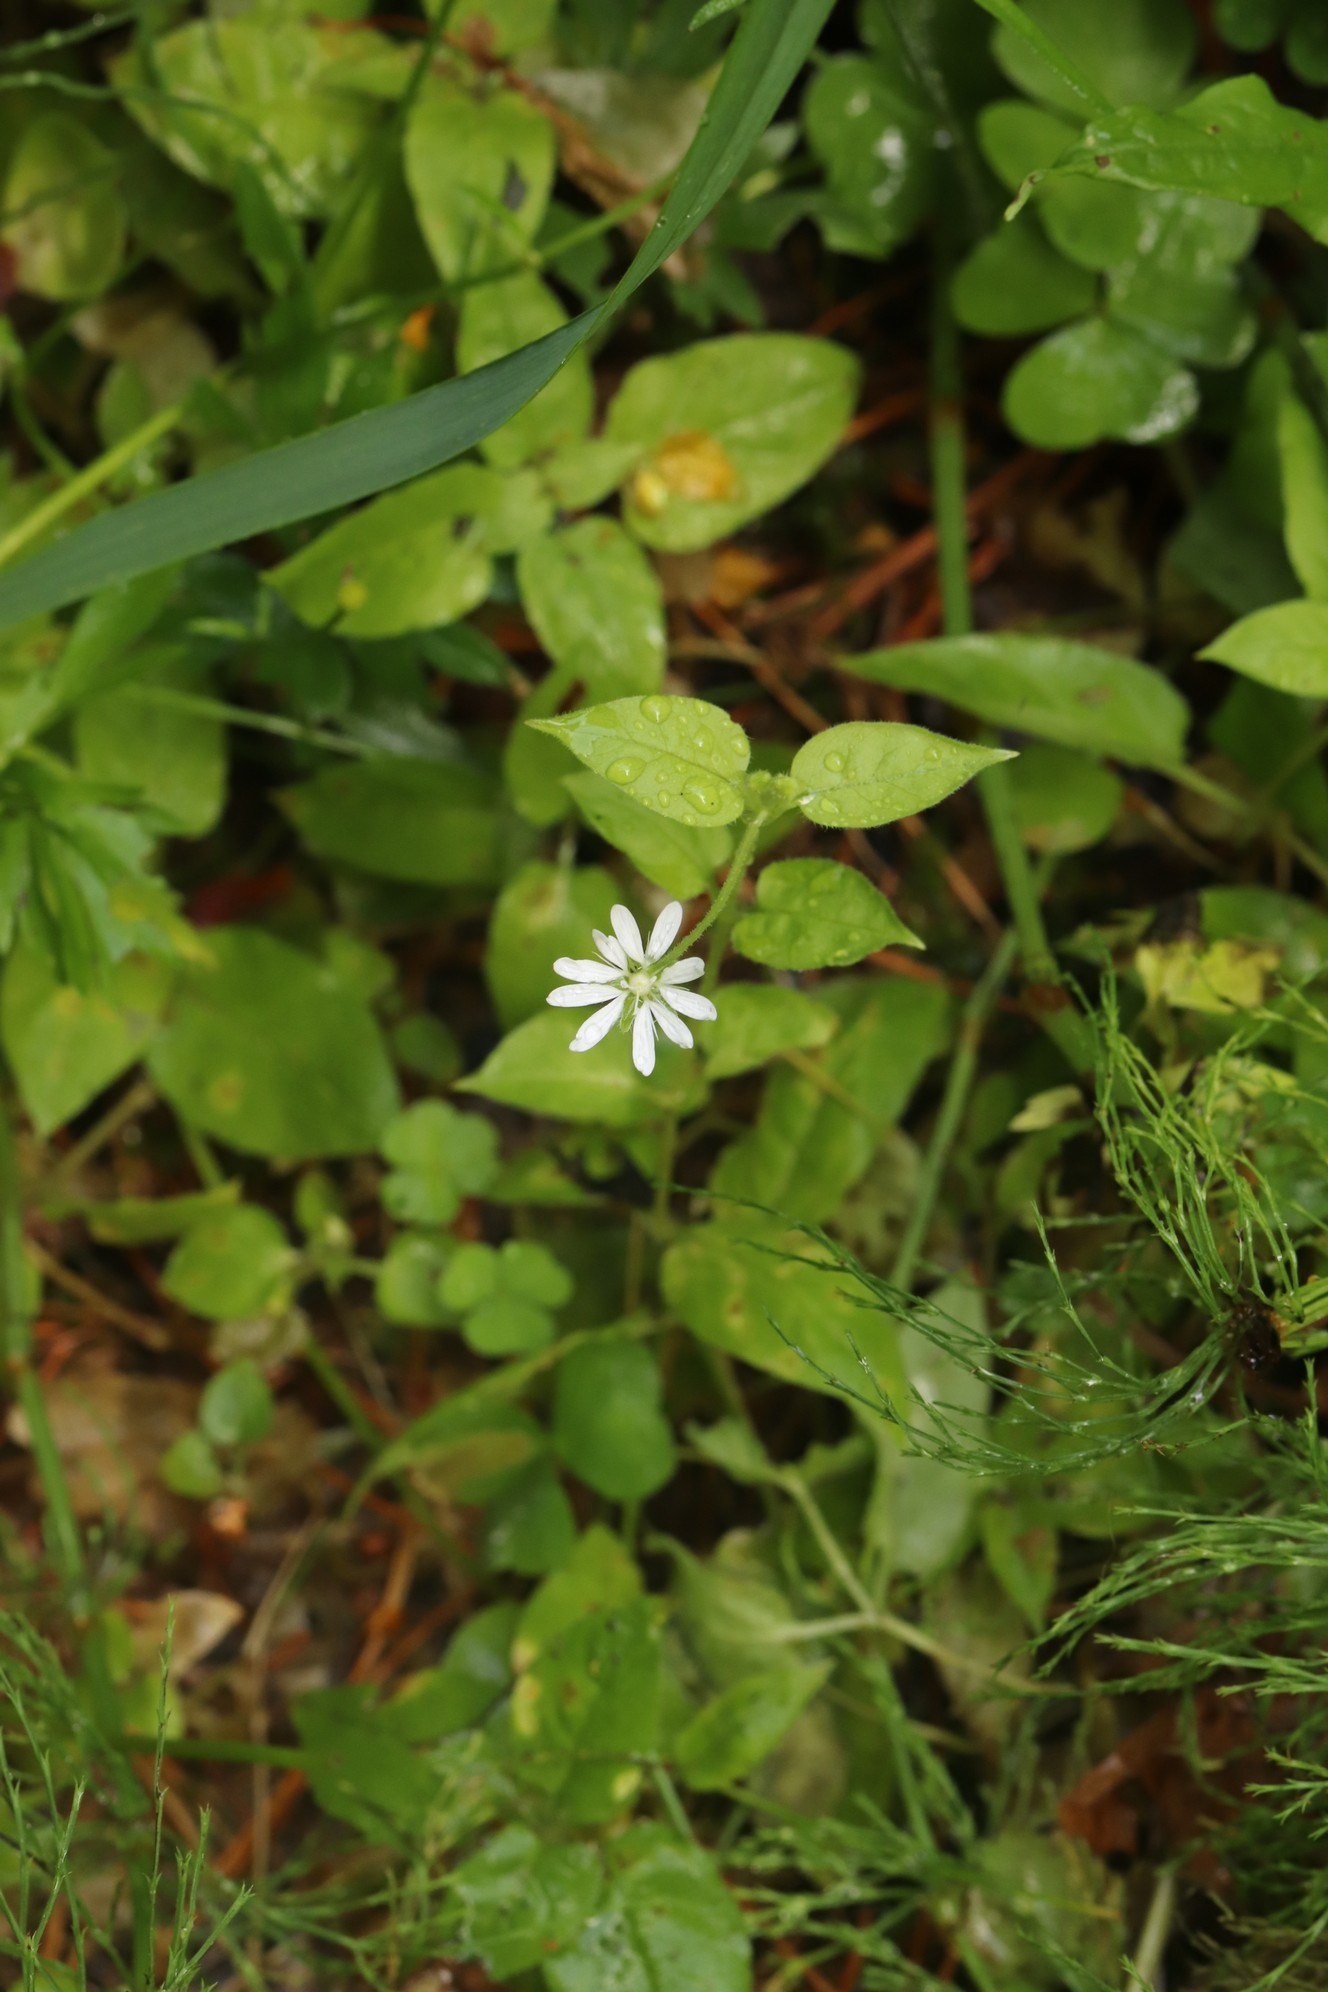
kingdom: Plantae
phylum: Tracheophyta
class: Magnoliopsida
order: Caryophyllales
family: Caryophyllaceae
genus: Stellaria
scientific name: Stellaria bungeana
